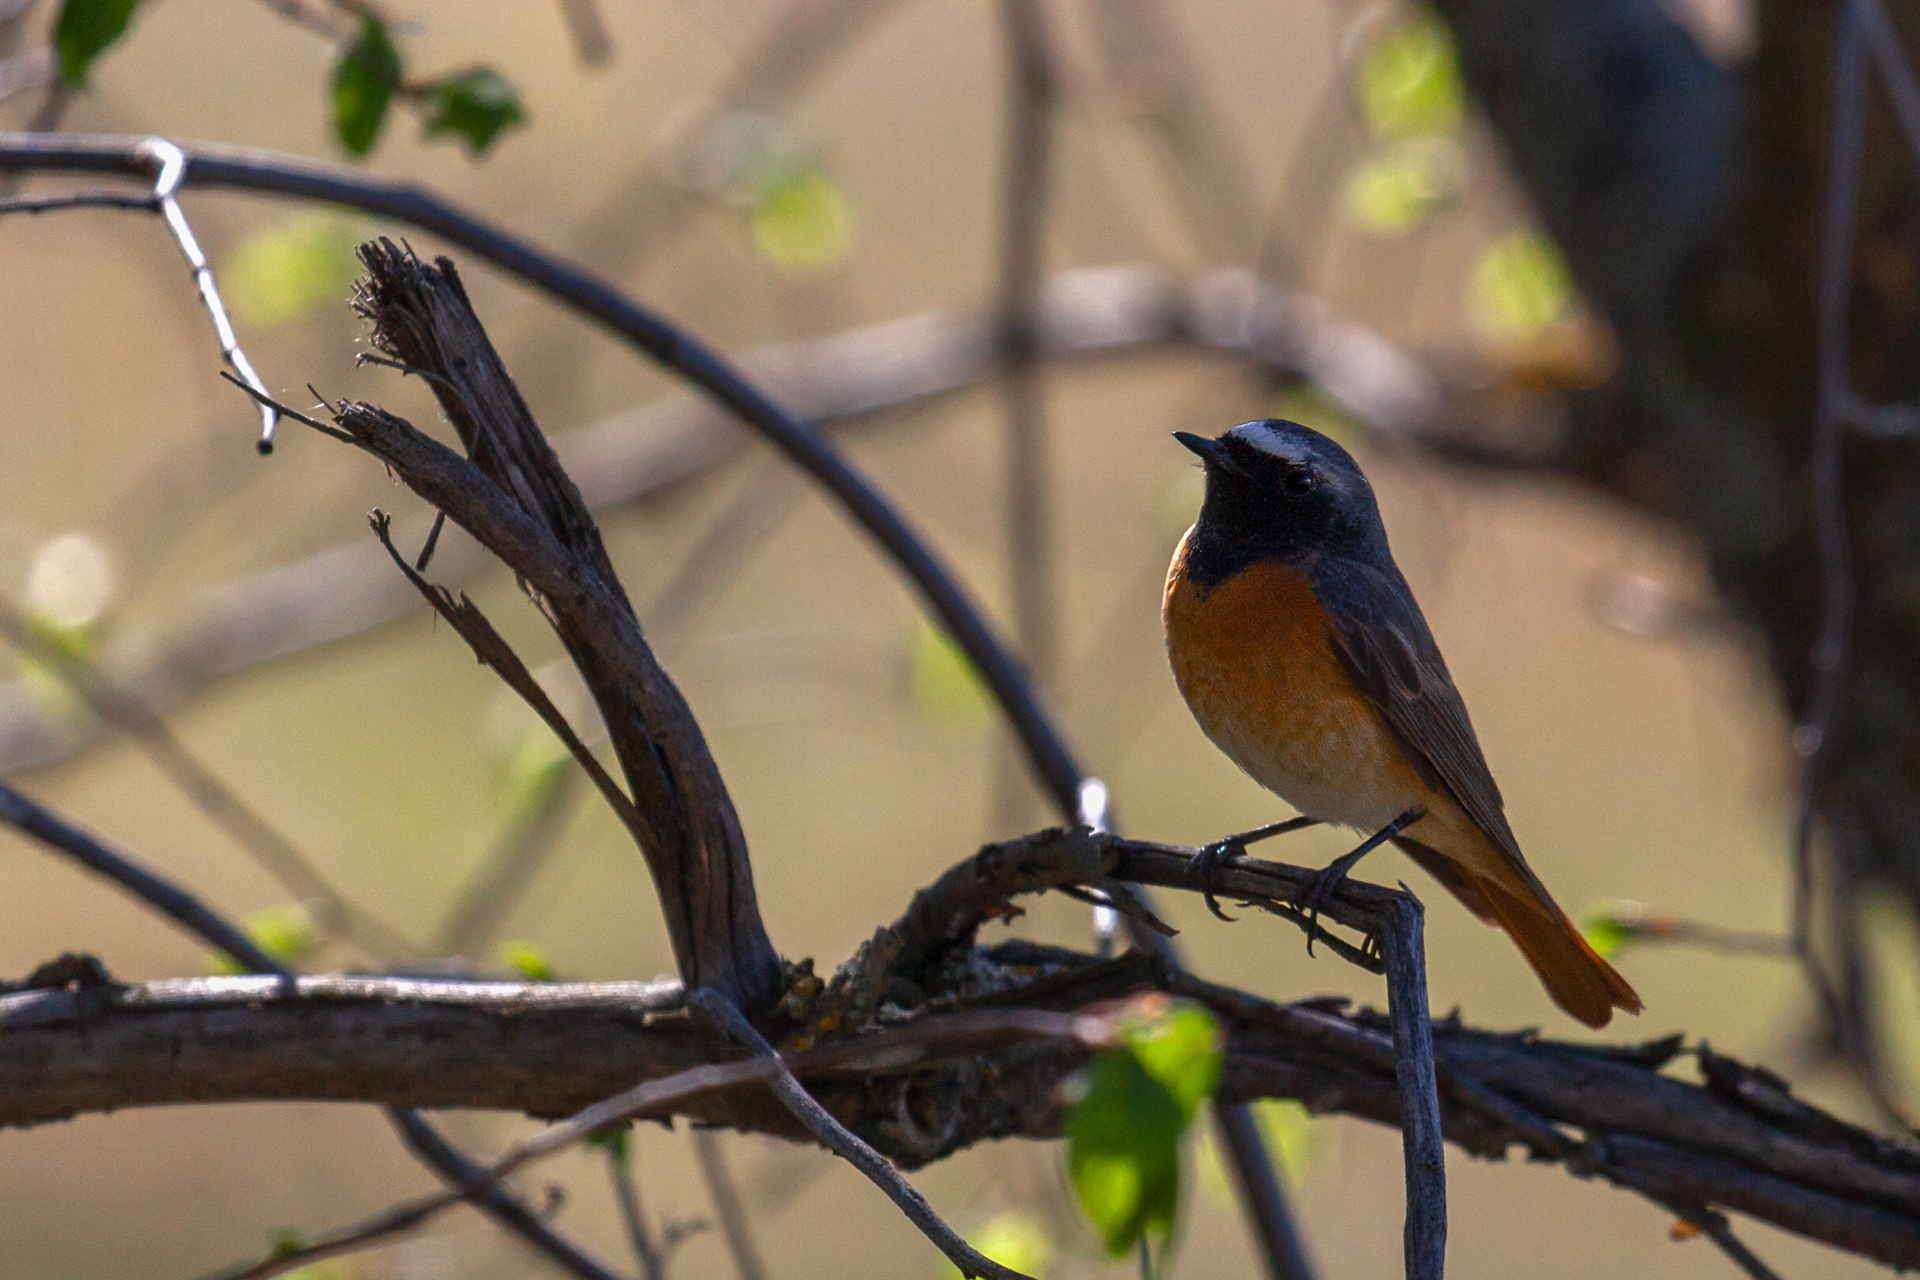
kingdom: Animalia
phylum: Chordata
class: Aves
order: Passeriformes
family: Muscicapidae
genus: Phoenicurus
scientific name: Phoenicurus phoenicurus
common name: Common redstart
